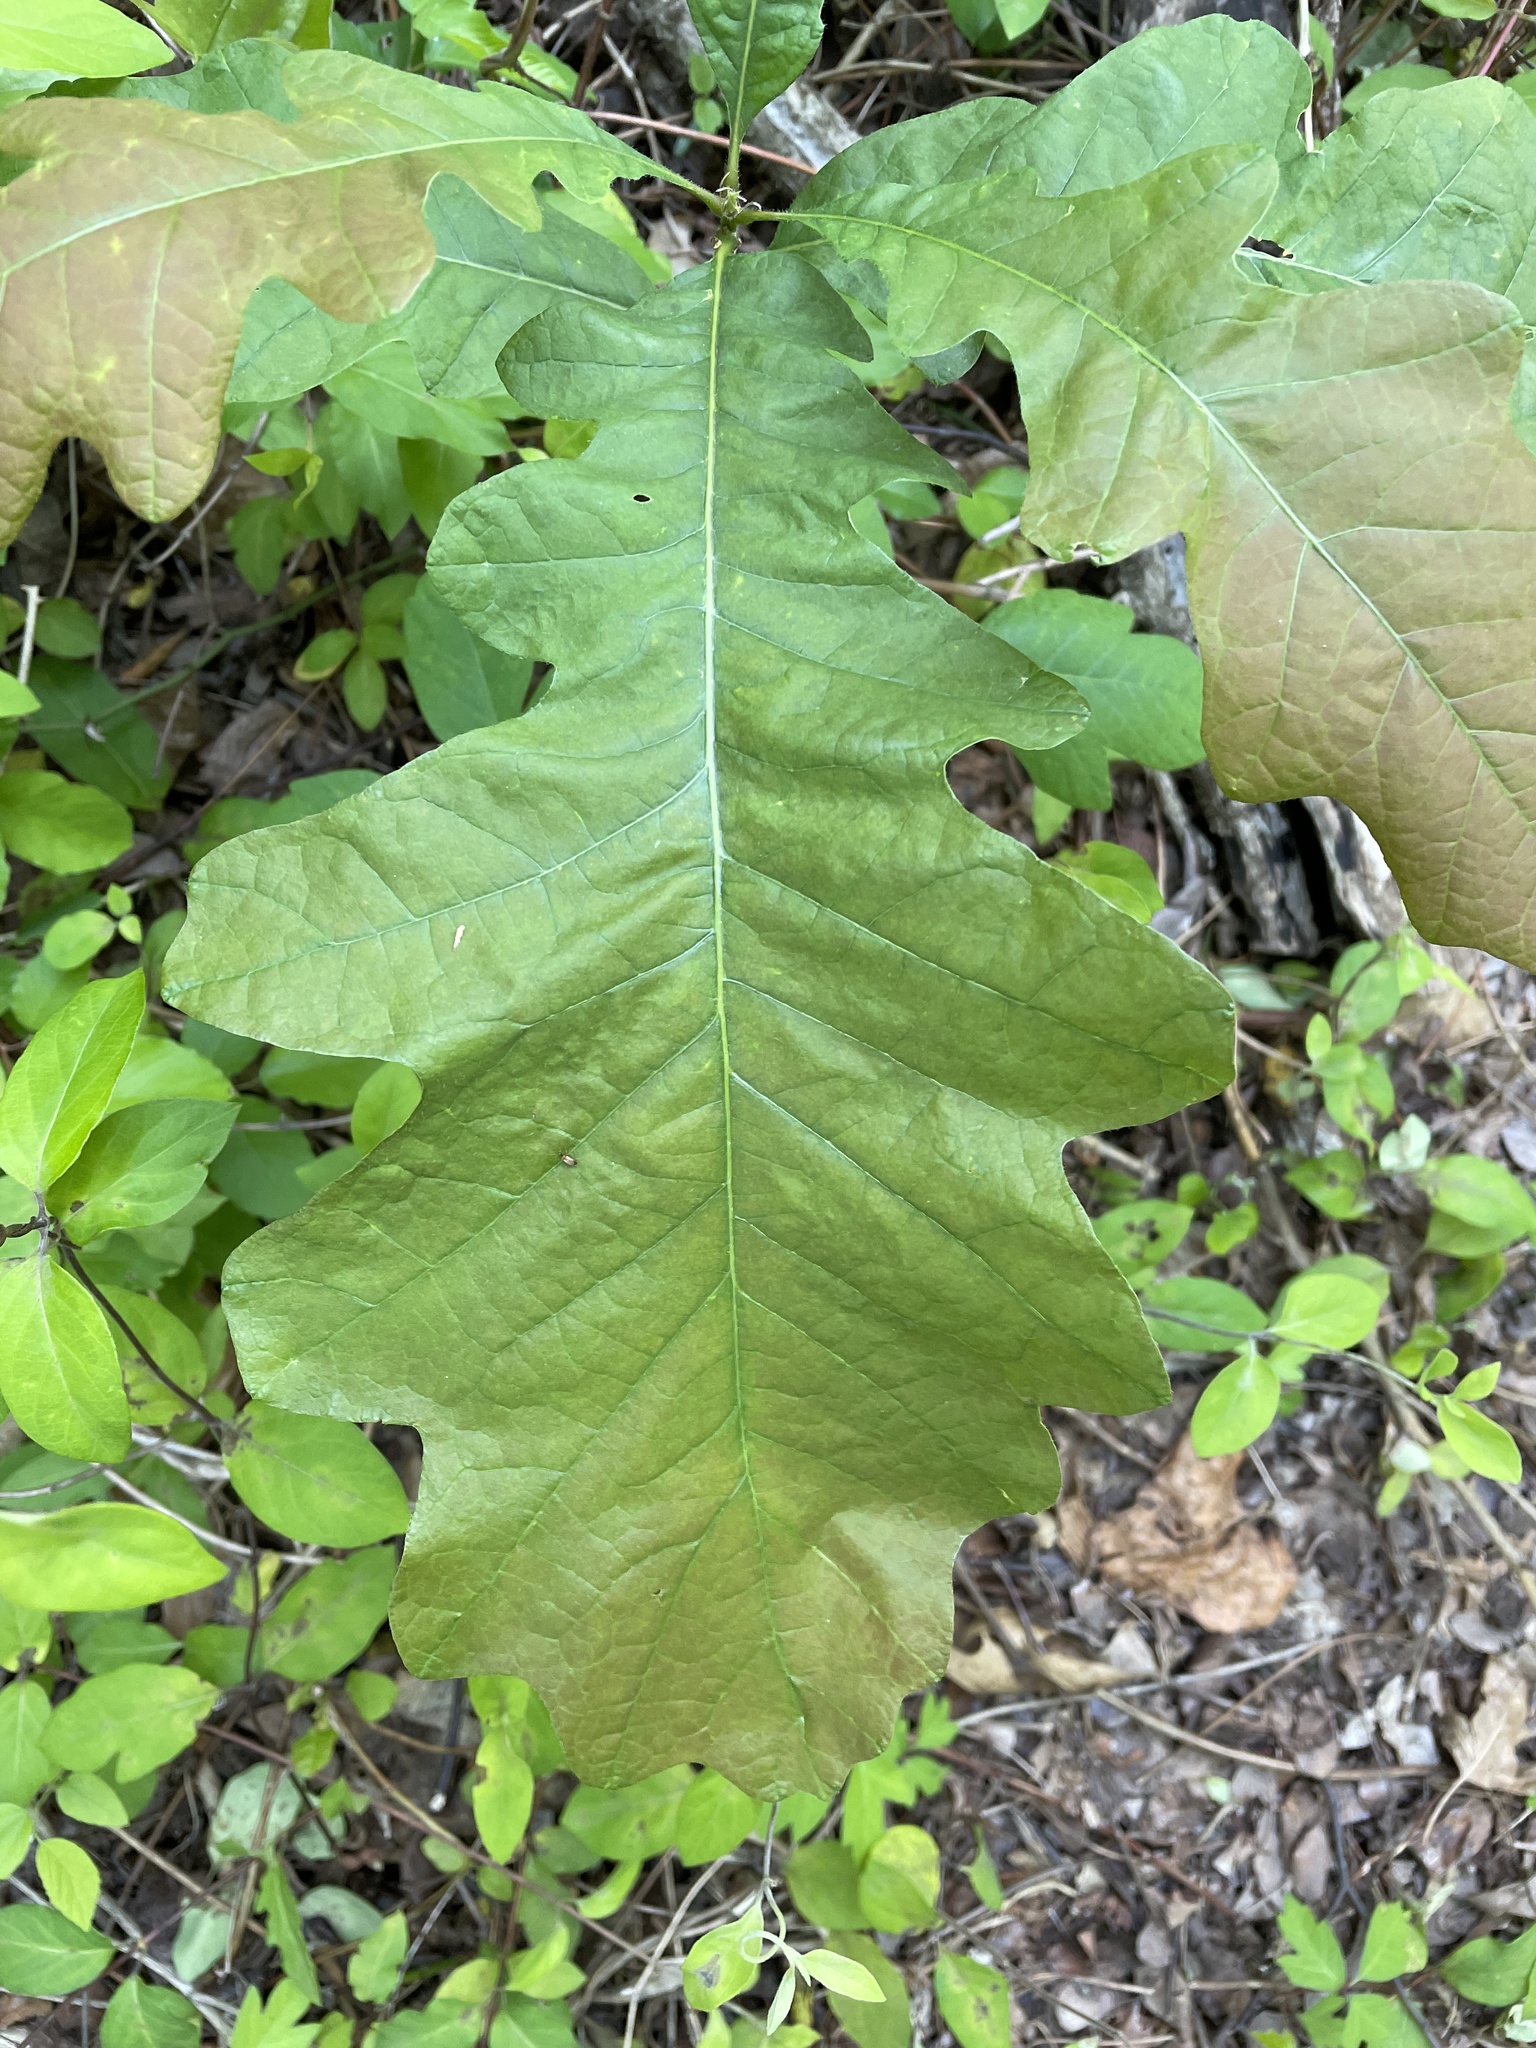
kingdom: Plantae
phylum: Tracheophyta
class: Magnoliopsida
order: Fagales
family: Fagaceae
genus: Quercus
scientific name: Quercus macrocarpa
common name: Bur oak
